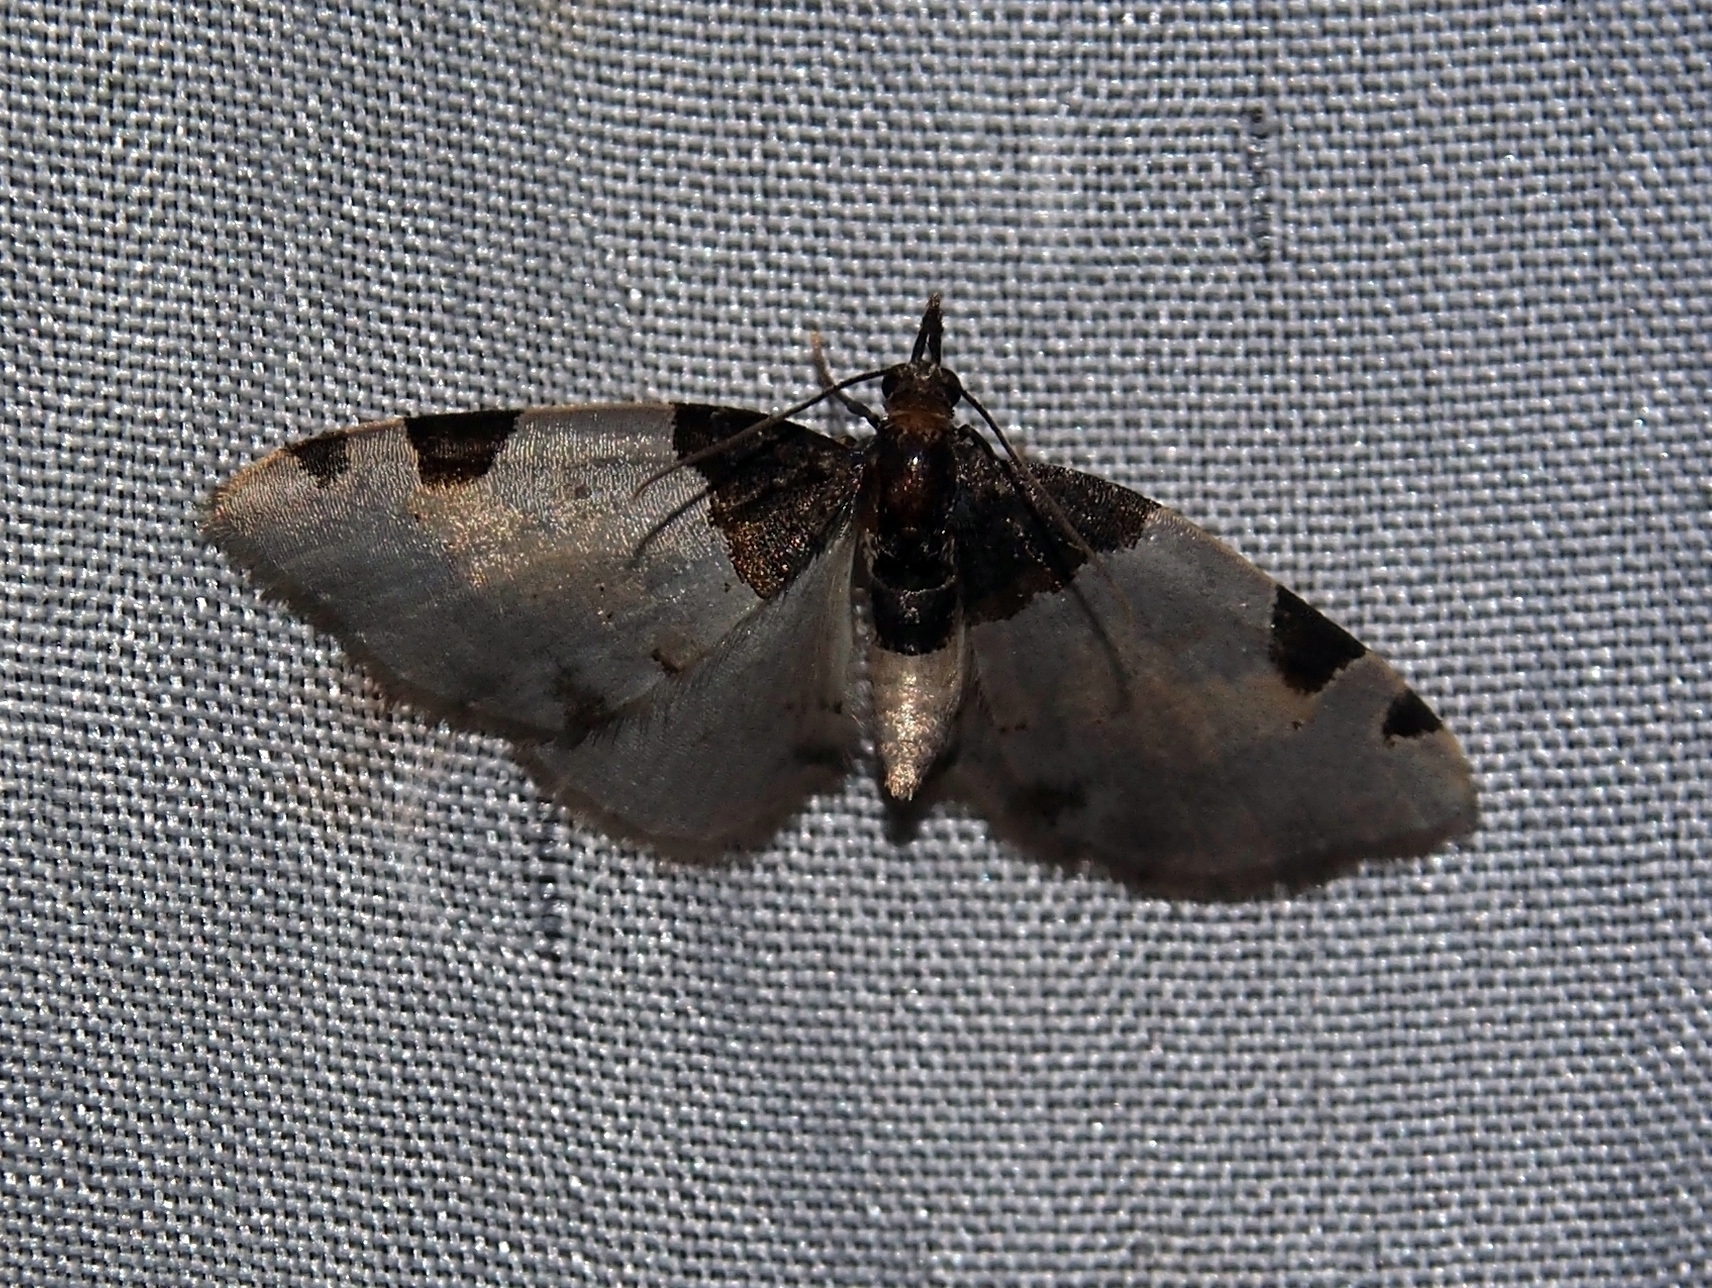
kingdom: Animalia
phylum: Arthropoda
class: Insecta
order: Lepidoptera
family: Geometridae
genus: Perizoma
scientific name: Perizoma basiplaga
